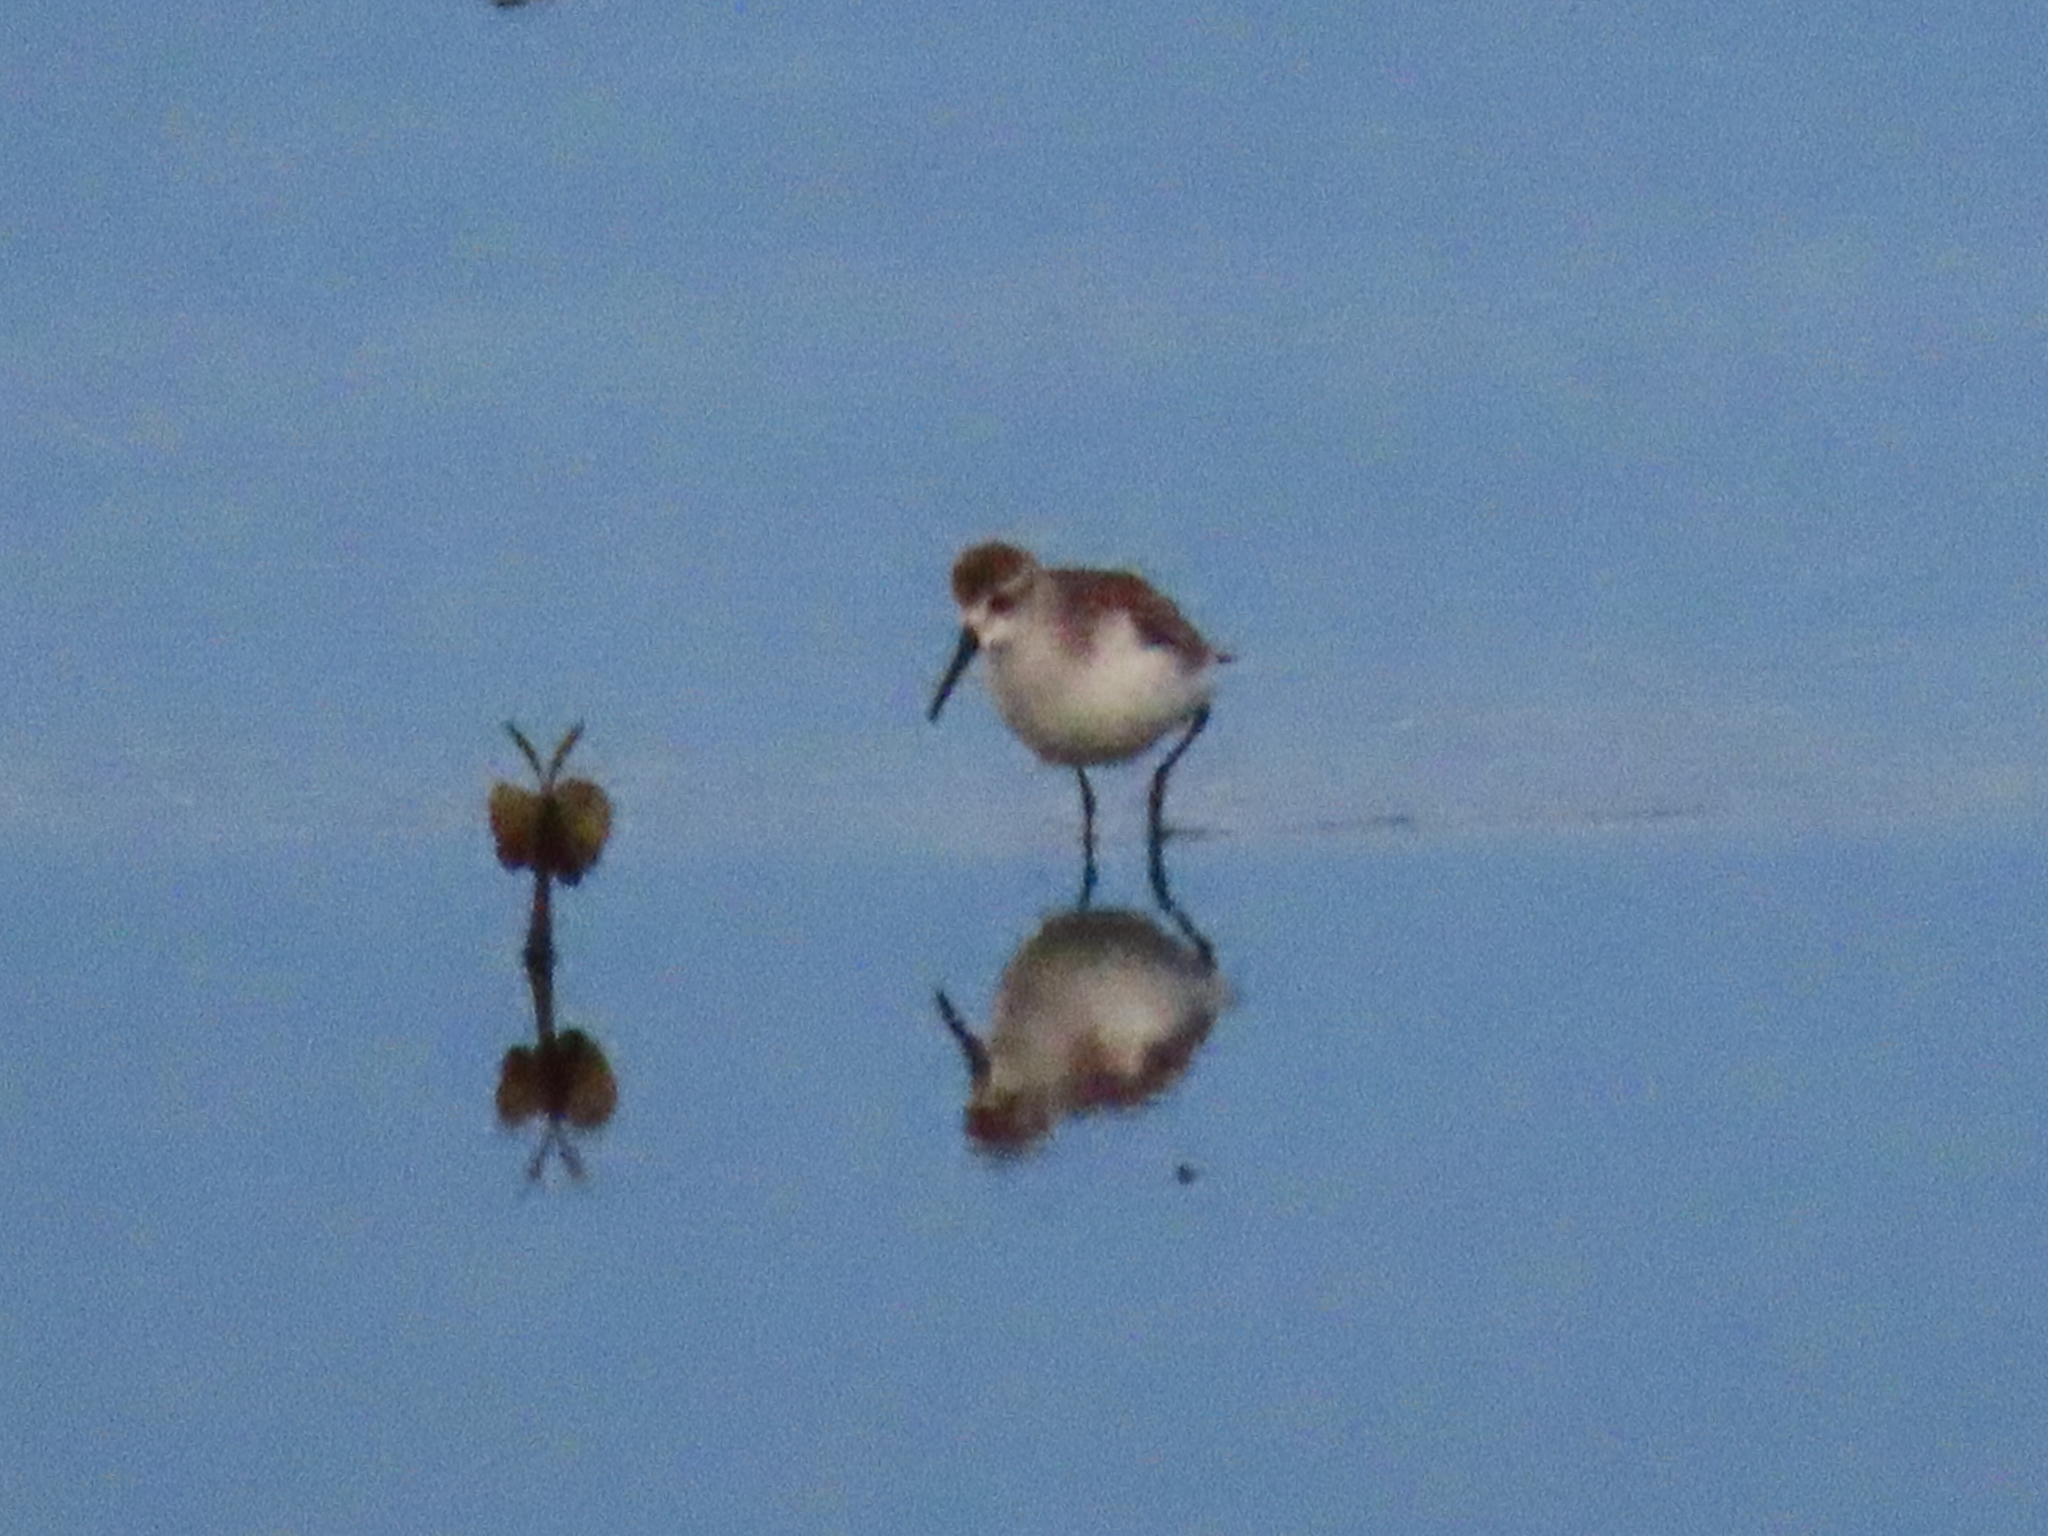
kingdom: Animalia
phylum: Chordata
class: Aves
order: Charadriiformes
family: Scolopacidae
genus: Calidris
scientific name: Calidris mauri
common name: Western sandpiper
